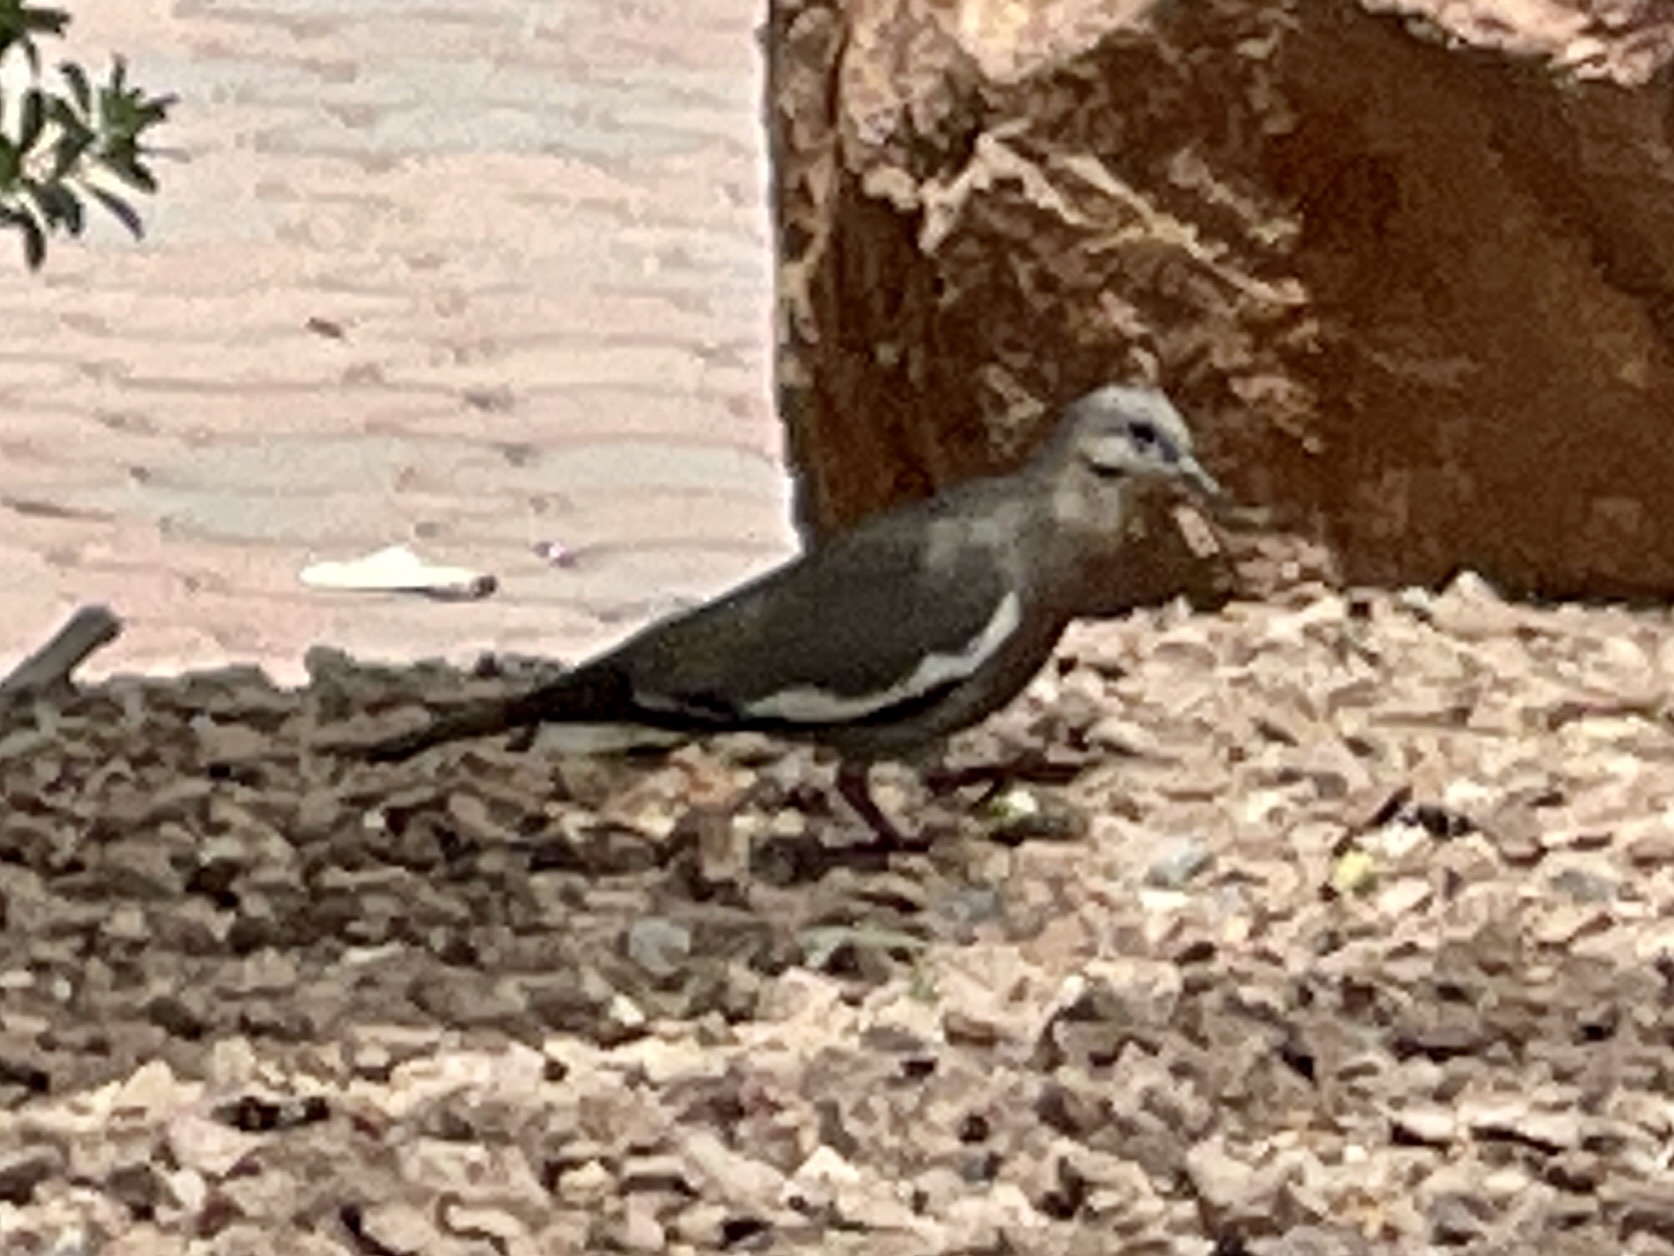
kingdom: Animalia
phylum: Chordata
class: Aves
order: Columbiformes
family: Columbidae
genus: Zenaida
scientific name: Zenaida asiatica
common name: White-winged dove
